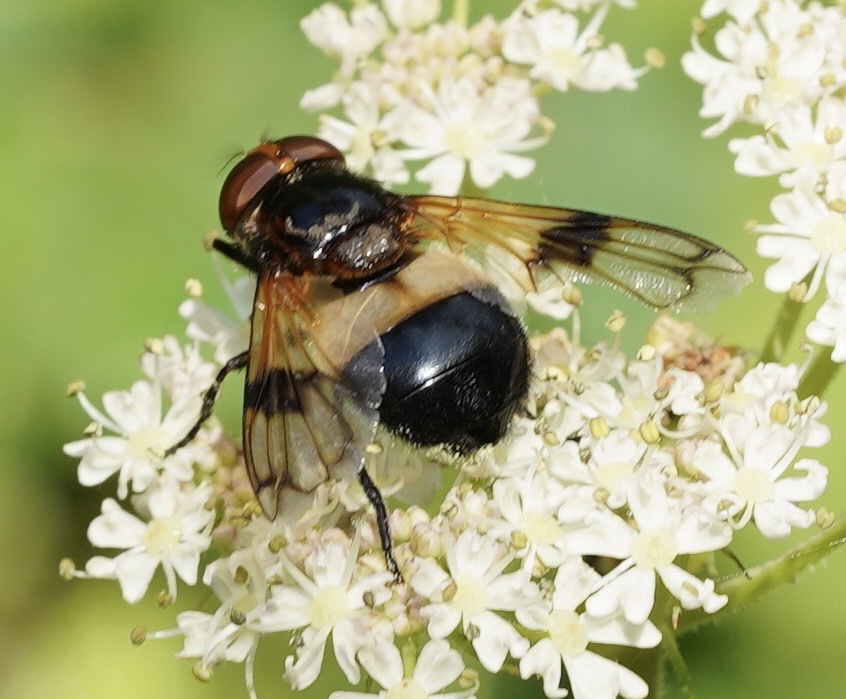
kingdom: Animalia
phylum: Arthropoda
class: Insecta
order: Diptera
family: Syrphidae
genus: Volucella
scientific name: Volucella pellucens
